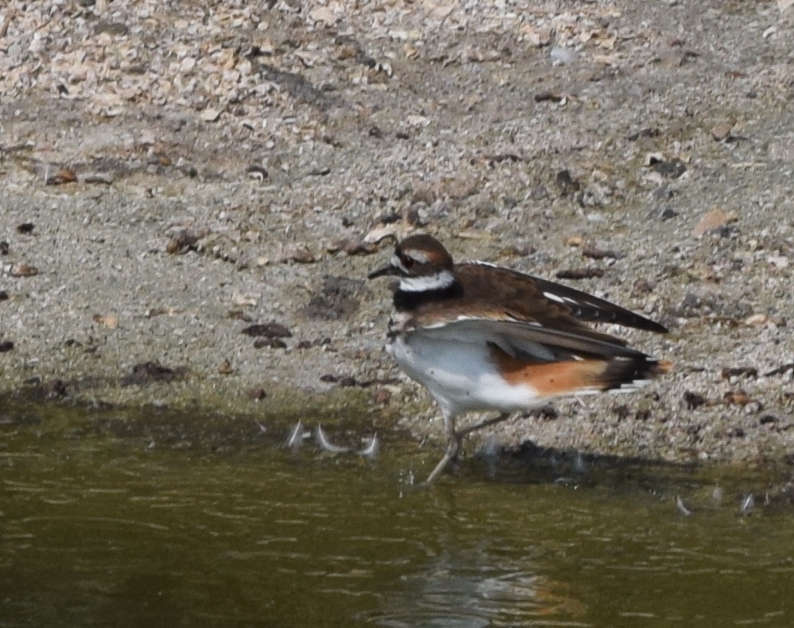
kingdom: Animalia
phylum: Chordata
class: Aves
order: Charadriiformes
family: Charadriidae
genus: Charadrius
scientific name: Charadrius vociferus
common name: Killdeer
